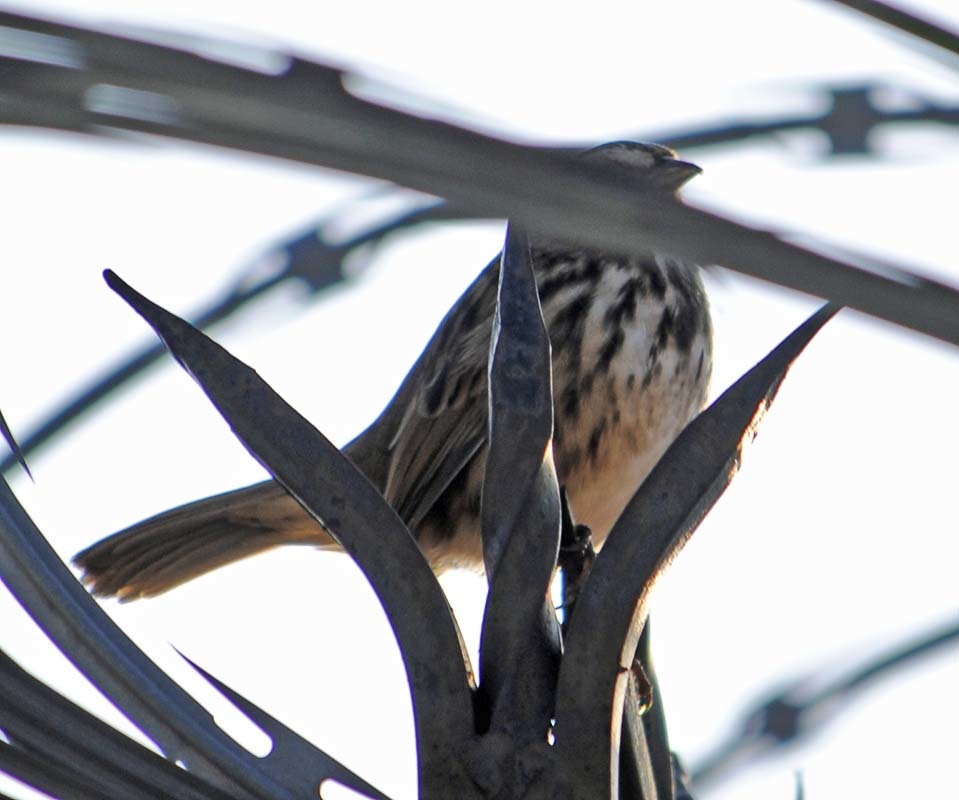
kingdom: Animalia
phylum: Chordata
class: Aves
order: Passeriformes
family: Passerellidae
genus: Melospiza
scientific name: Melospiza melodia
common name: Song sparrow
